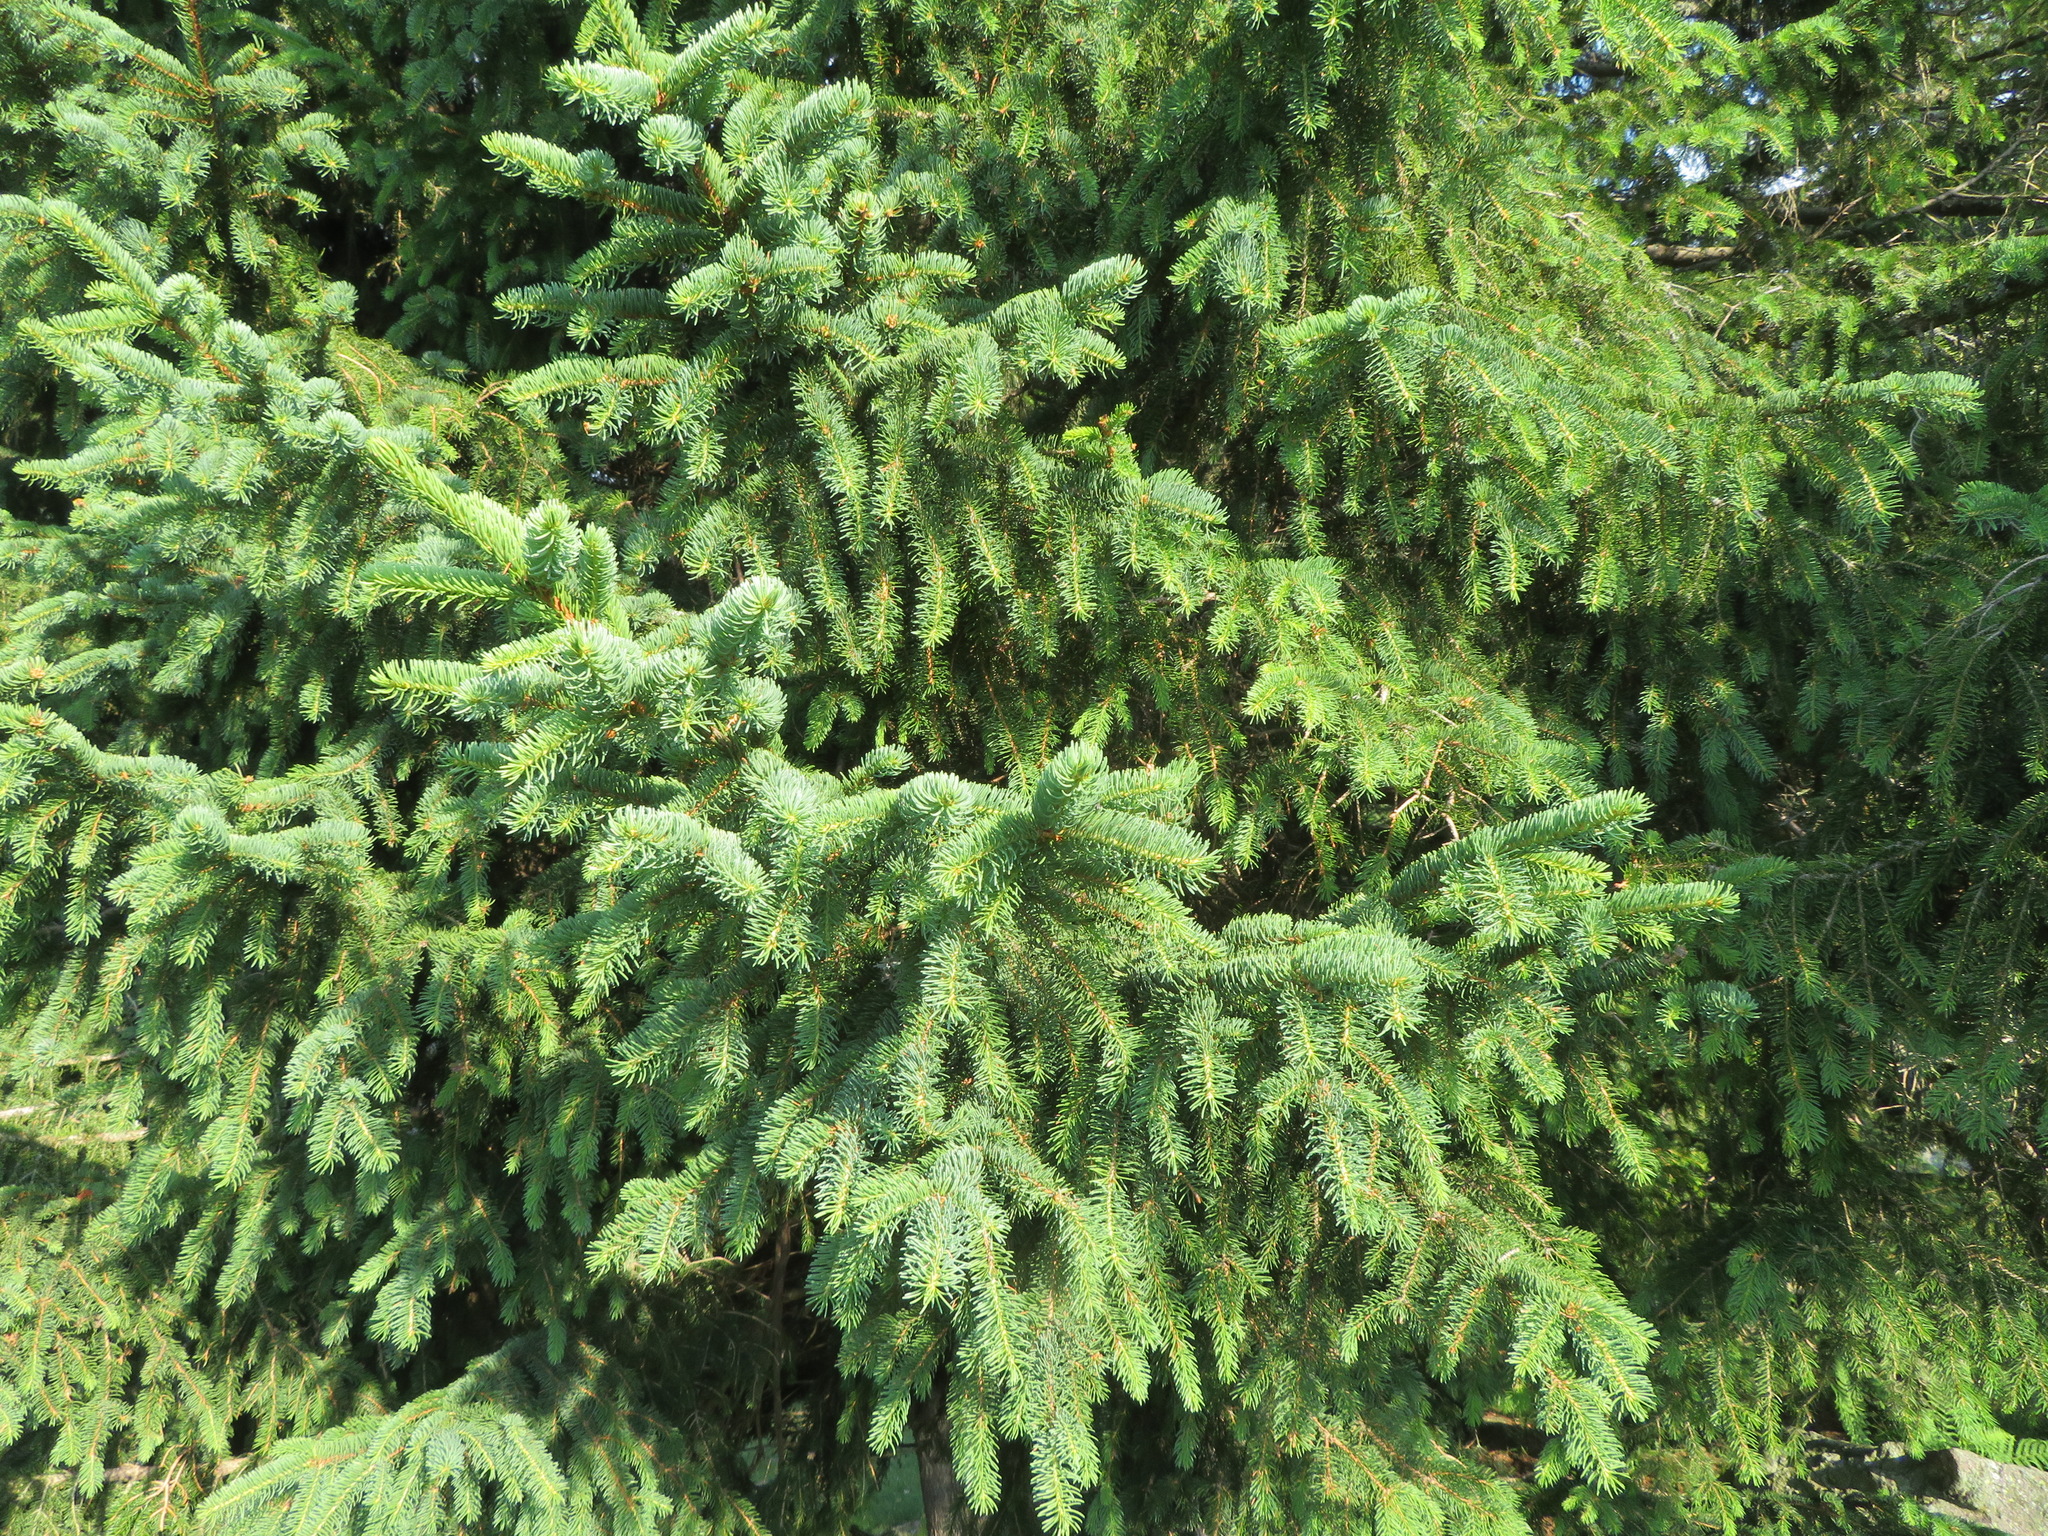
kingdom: Plantae
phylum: Tracheophyta
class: Pinopsida
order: Pinales
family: Pinaceae
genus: Picea
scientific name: Picea abies
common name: Norway spruce
